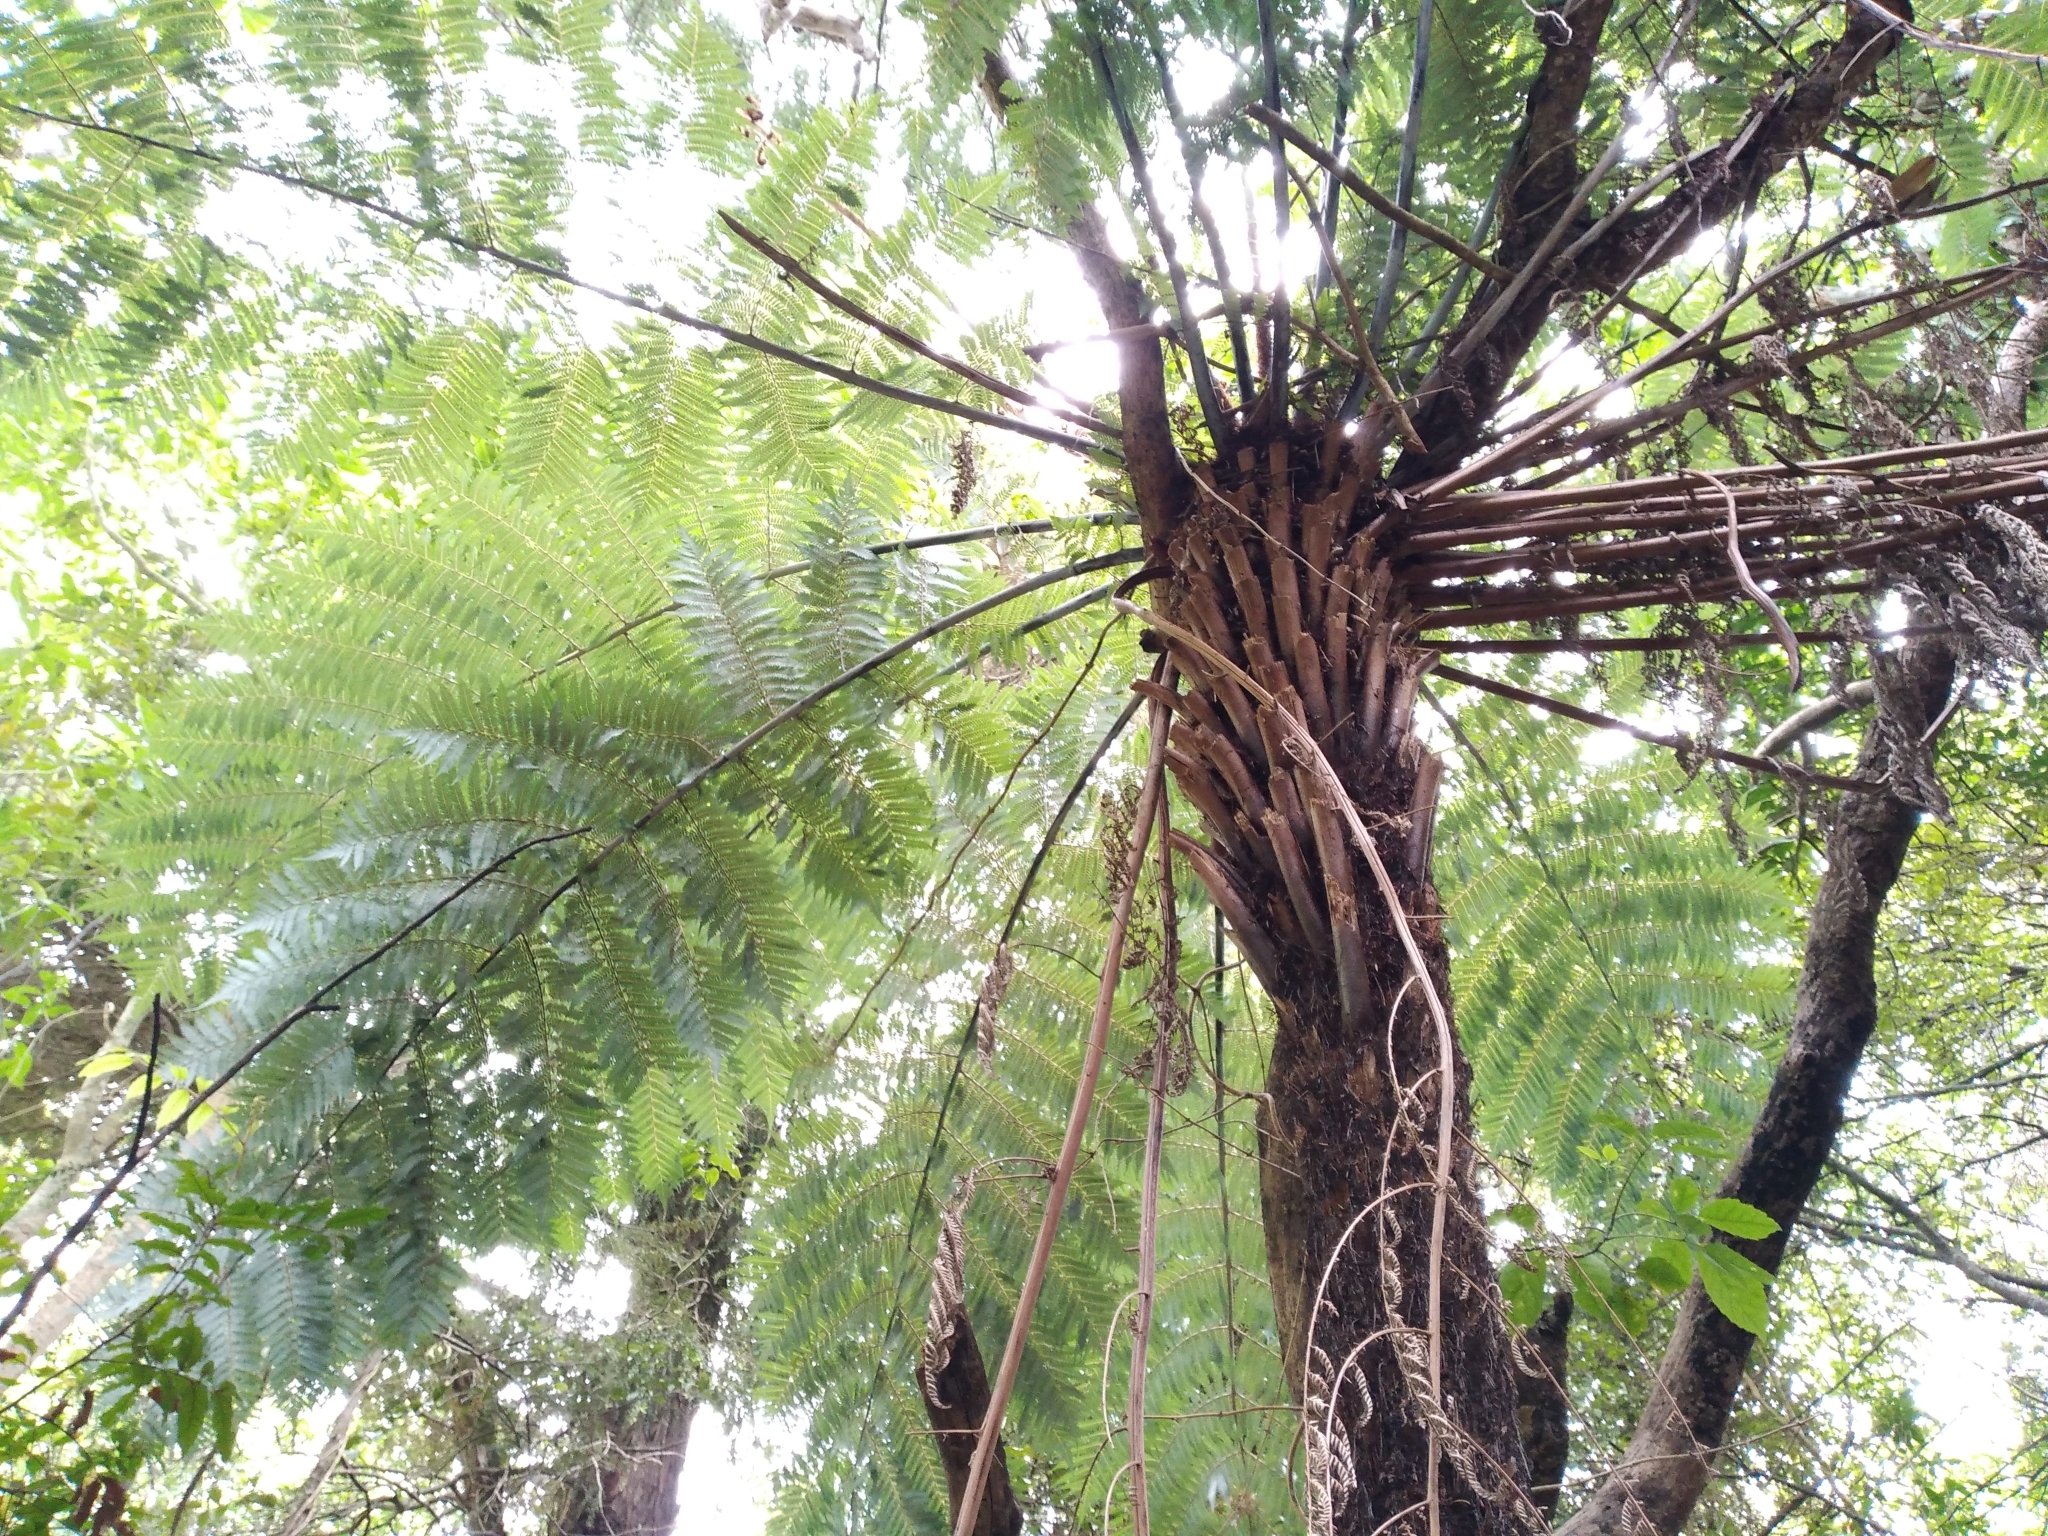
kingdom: Plantae
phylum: Tracheophyta
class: Polypodiopsida
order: Cyatheales
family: Cyatheaceae
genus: Alsophila
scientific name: Alsophila dealbata
